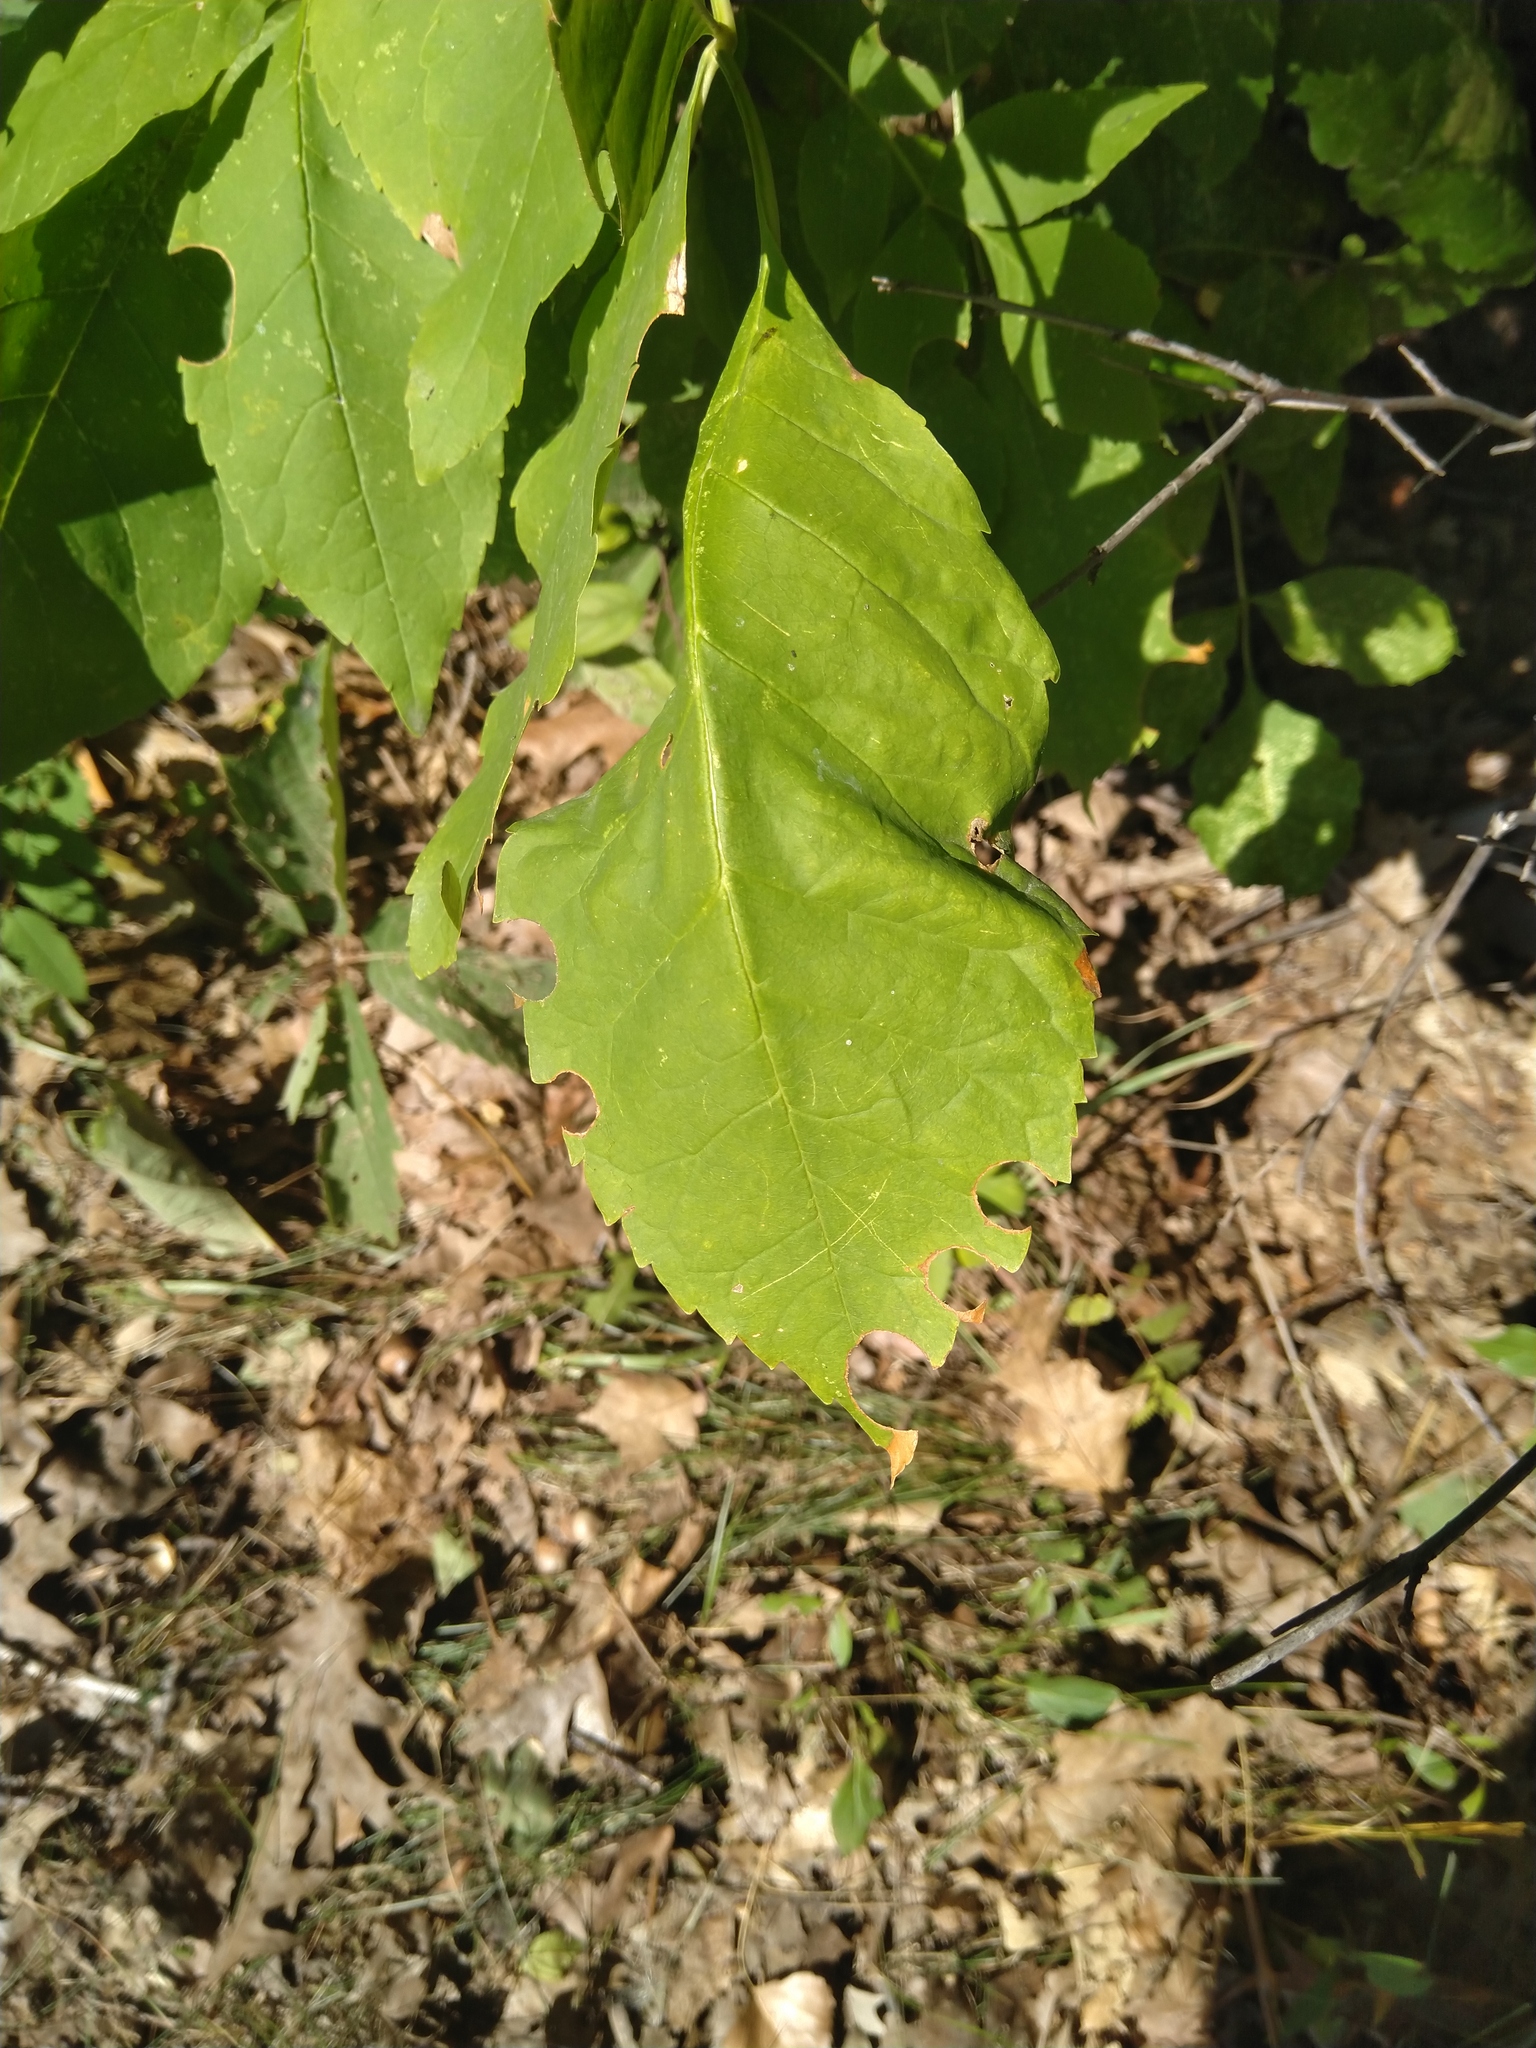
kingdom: Plantae
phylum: Tracheophyta
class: Magnoliopsida
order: Lamiales
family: Oleaceae
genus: Fraxinus
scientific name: Fraxinus pennsylvanica
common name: Green ash
